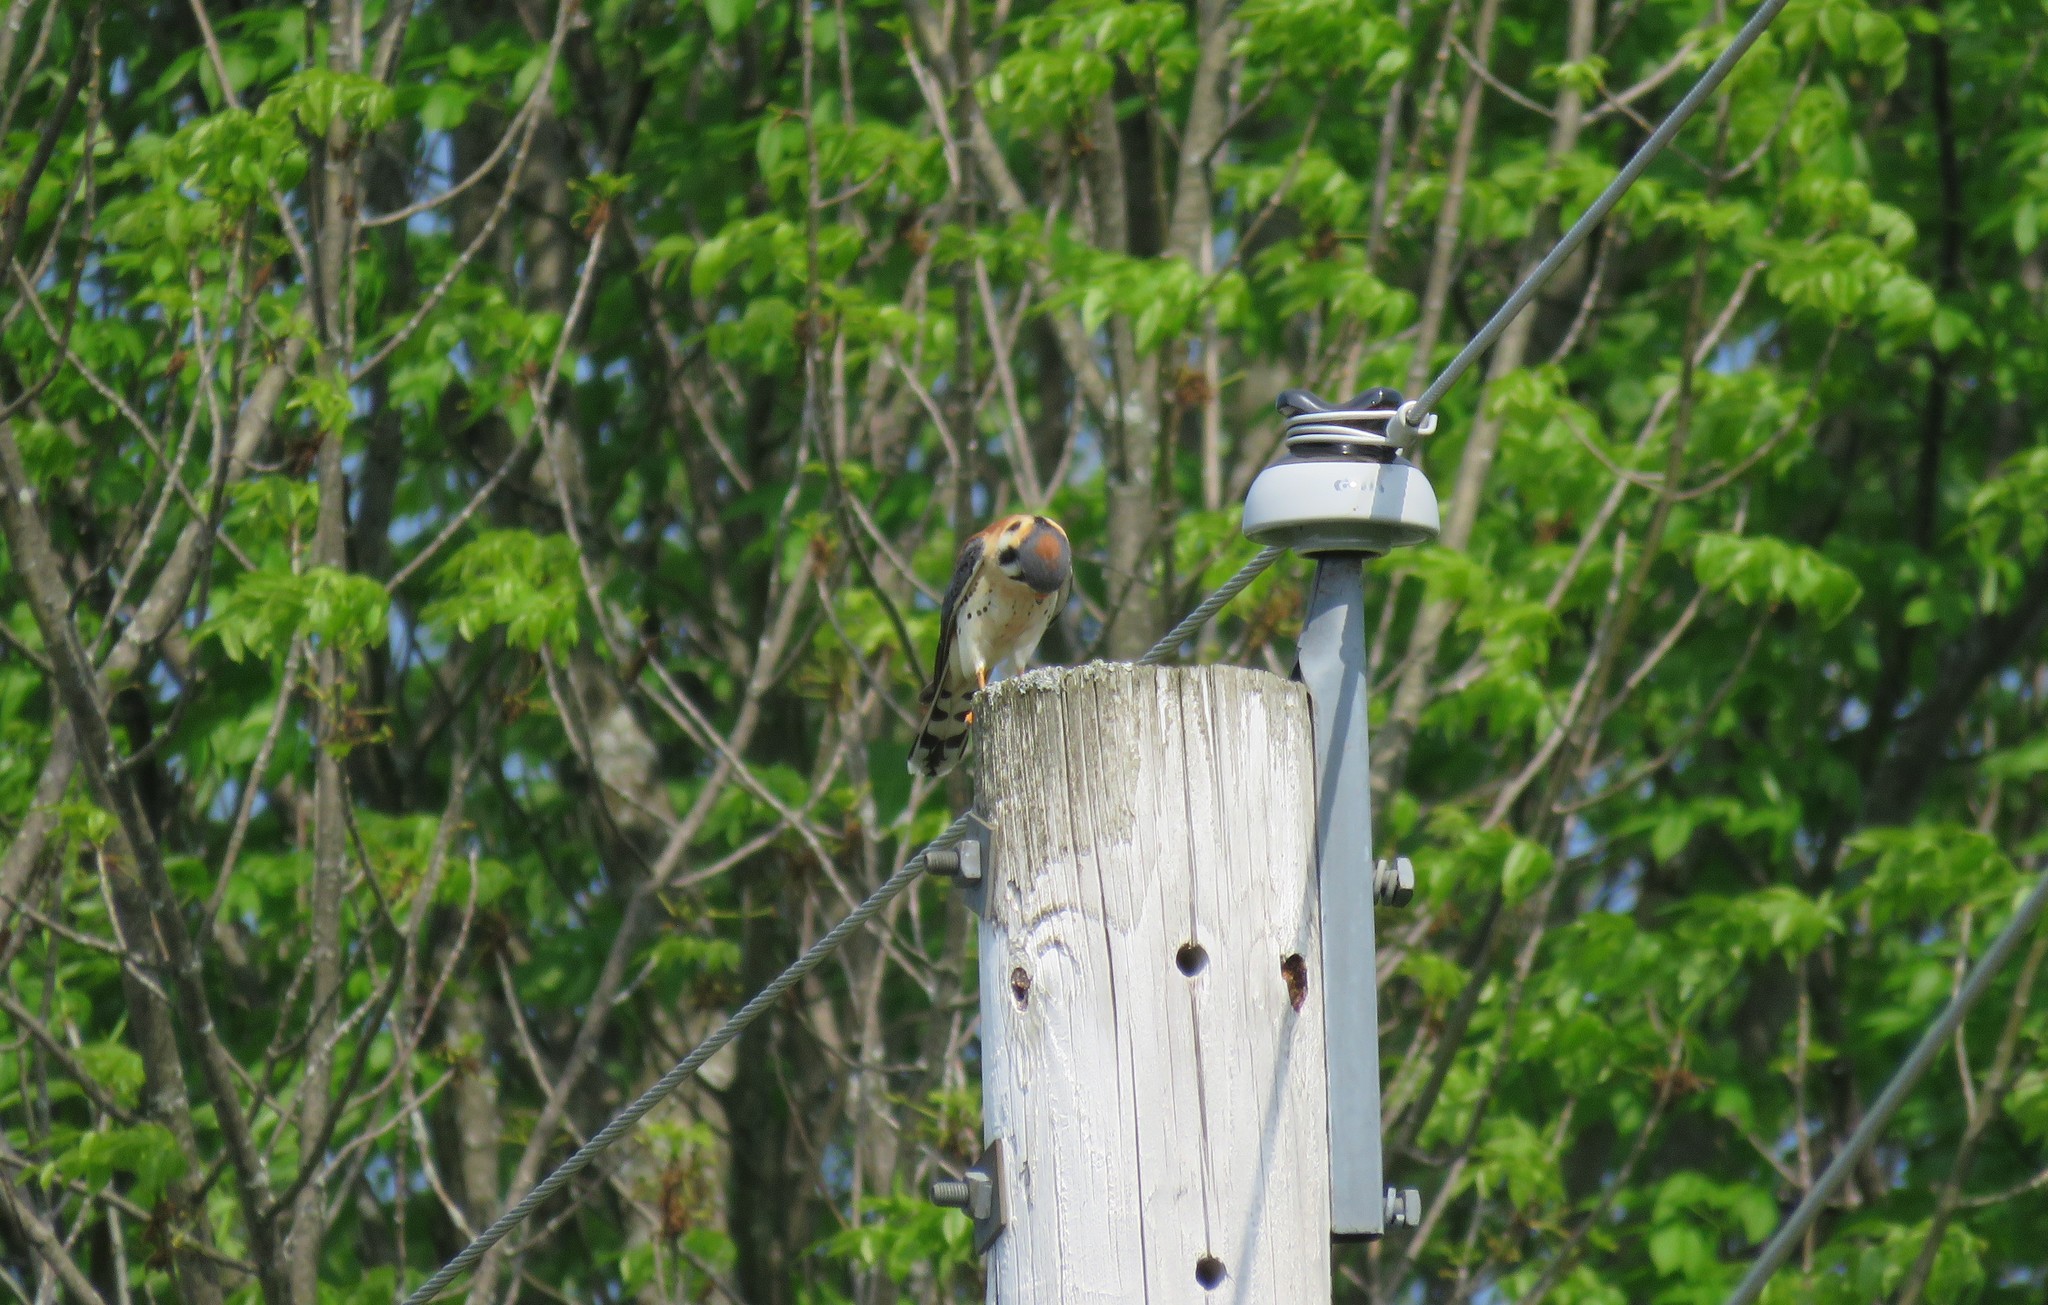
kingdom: Animalia
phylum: Chordata
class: Aves
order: Falconiformes
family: Falconidae
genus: Falco
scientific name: Falco sparverius
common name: American kestrel
